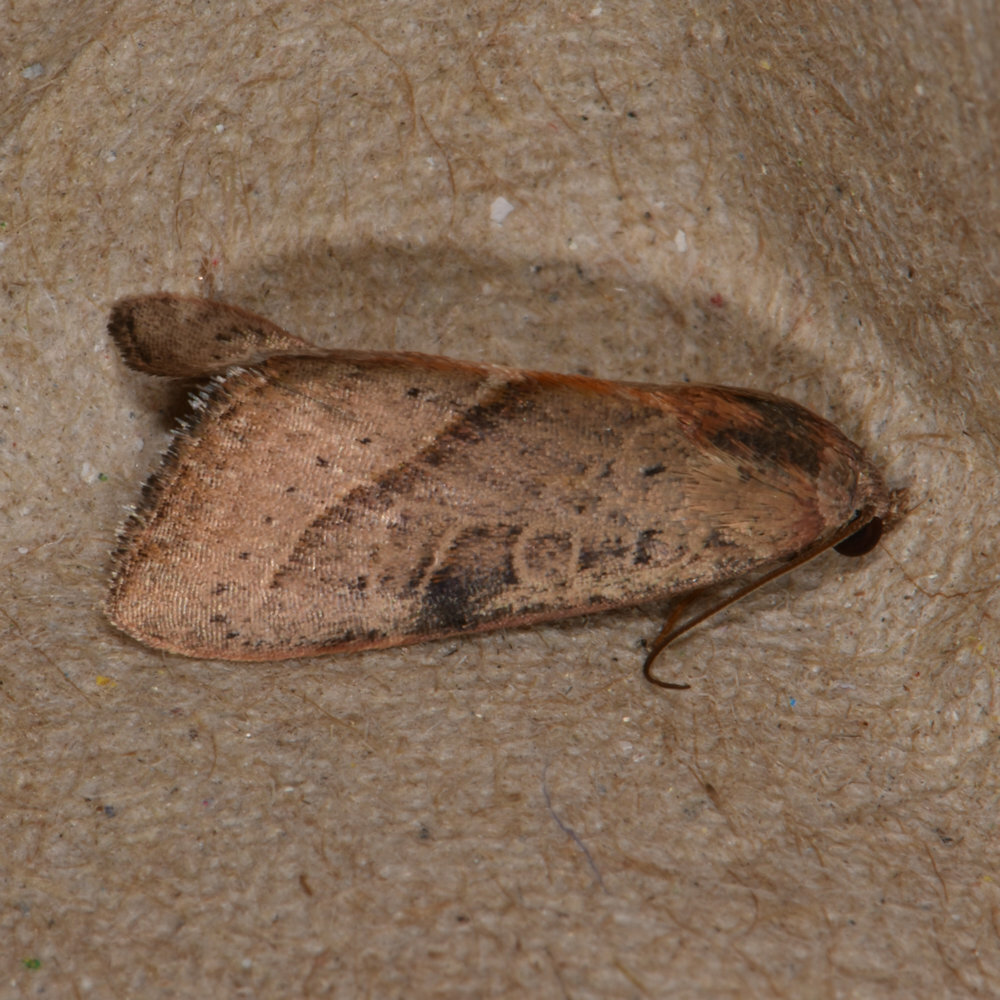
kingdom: Animalia
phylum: Arthropoda
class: Insecta
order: Lepidoptera
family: Noctuidae
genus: Galgula
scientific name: Galgula partita
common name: Wedgeling
